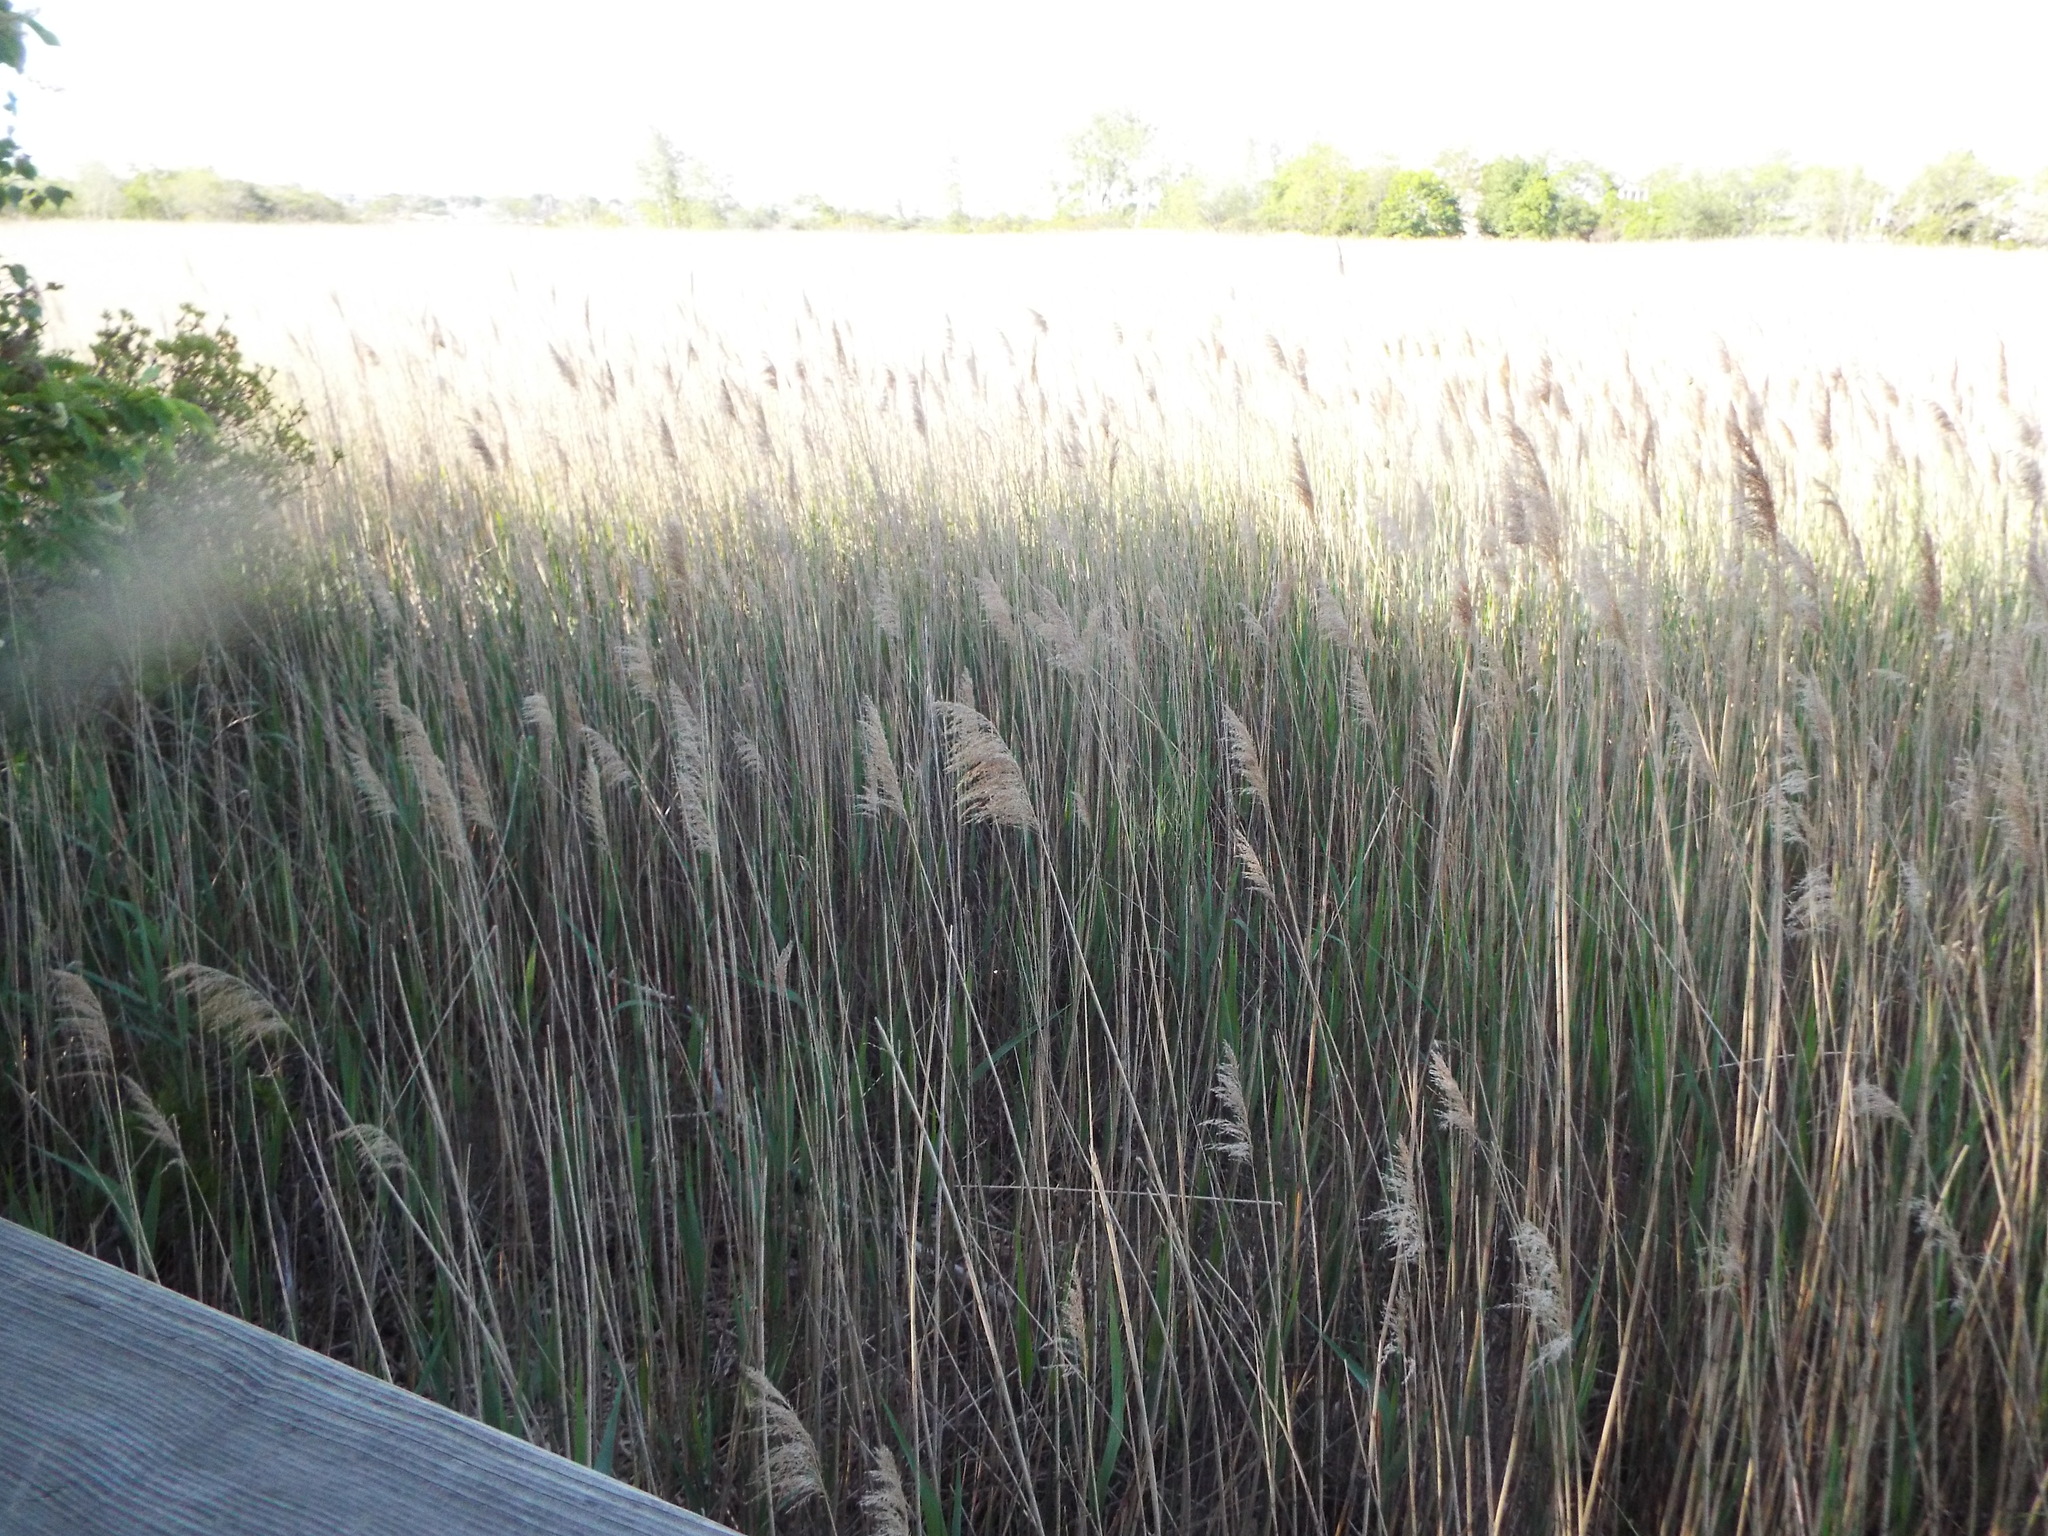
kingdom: Plantae
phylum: Tracheophyta
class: Liliopsida
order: Poales
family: Poaceae
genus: Phragmites
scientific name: Phragmites australis
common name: Common reed
